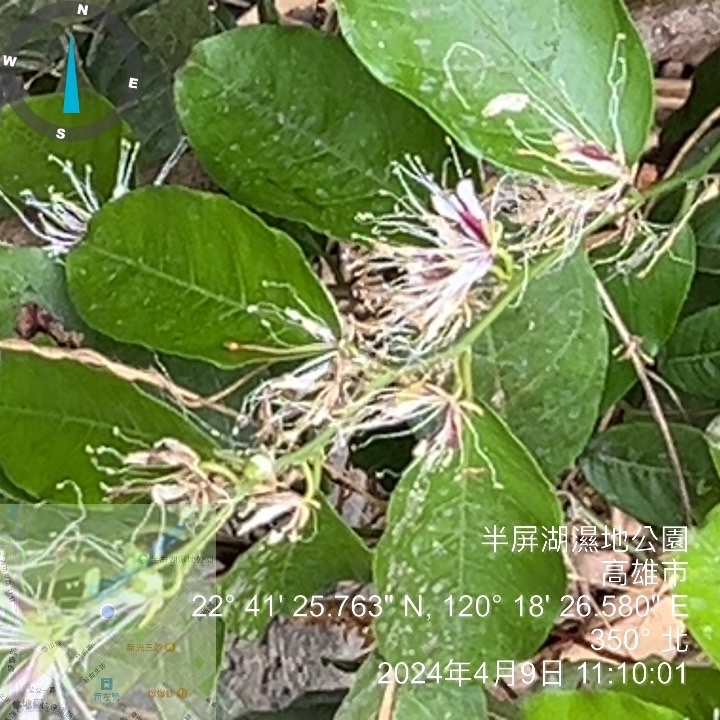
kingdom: Plantae
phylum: Tracheophyta
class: Magnoliopsida
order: Brassicales
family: Capparaceae
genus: Capparis
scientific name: Capparis micracantha
